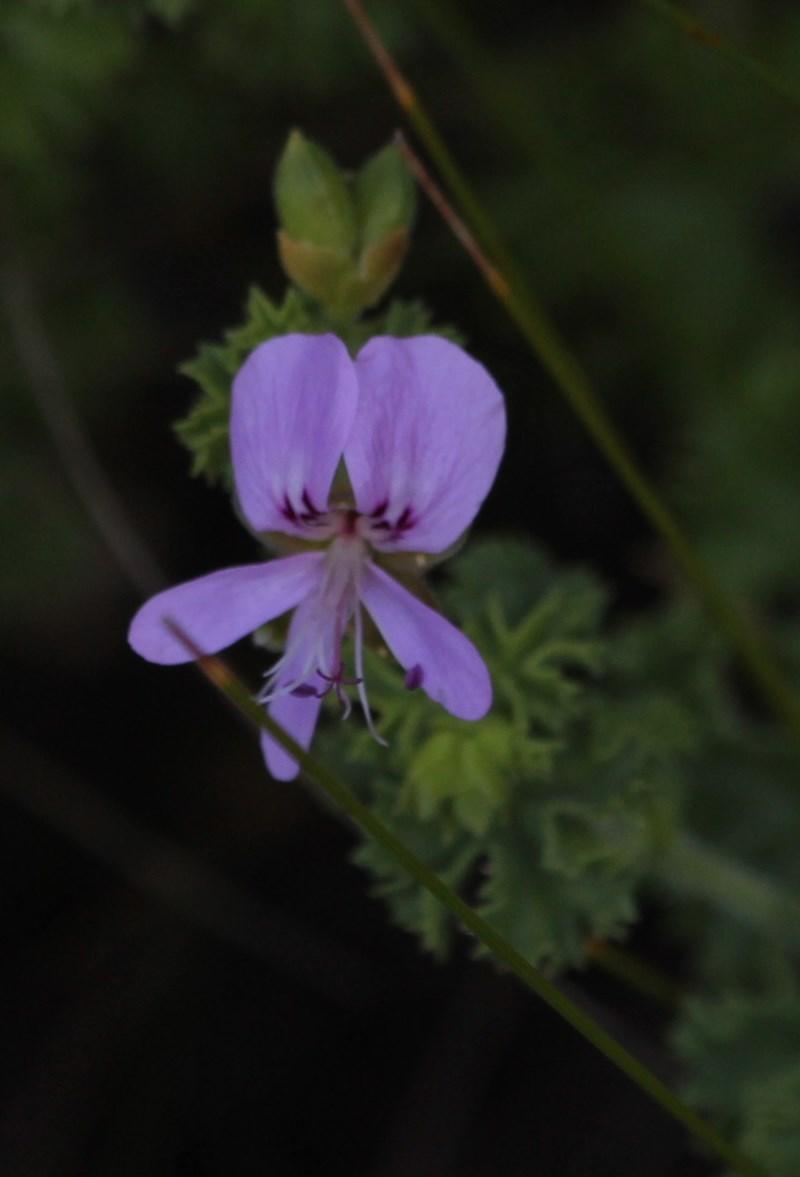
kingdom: Plantae
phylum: Tracheophyta
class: Magnoliopsida
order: Geraniales
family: Geraniaceae
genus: Pelargonium
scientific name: Pelargonium englerianum
